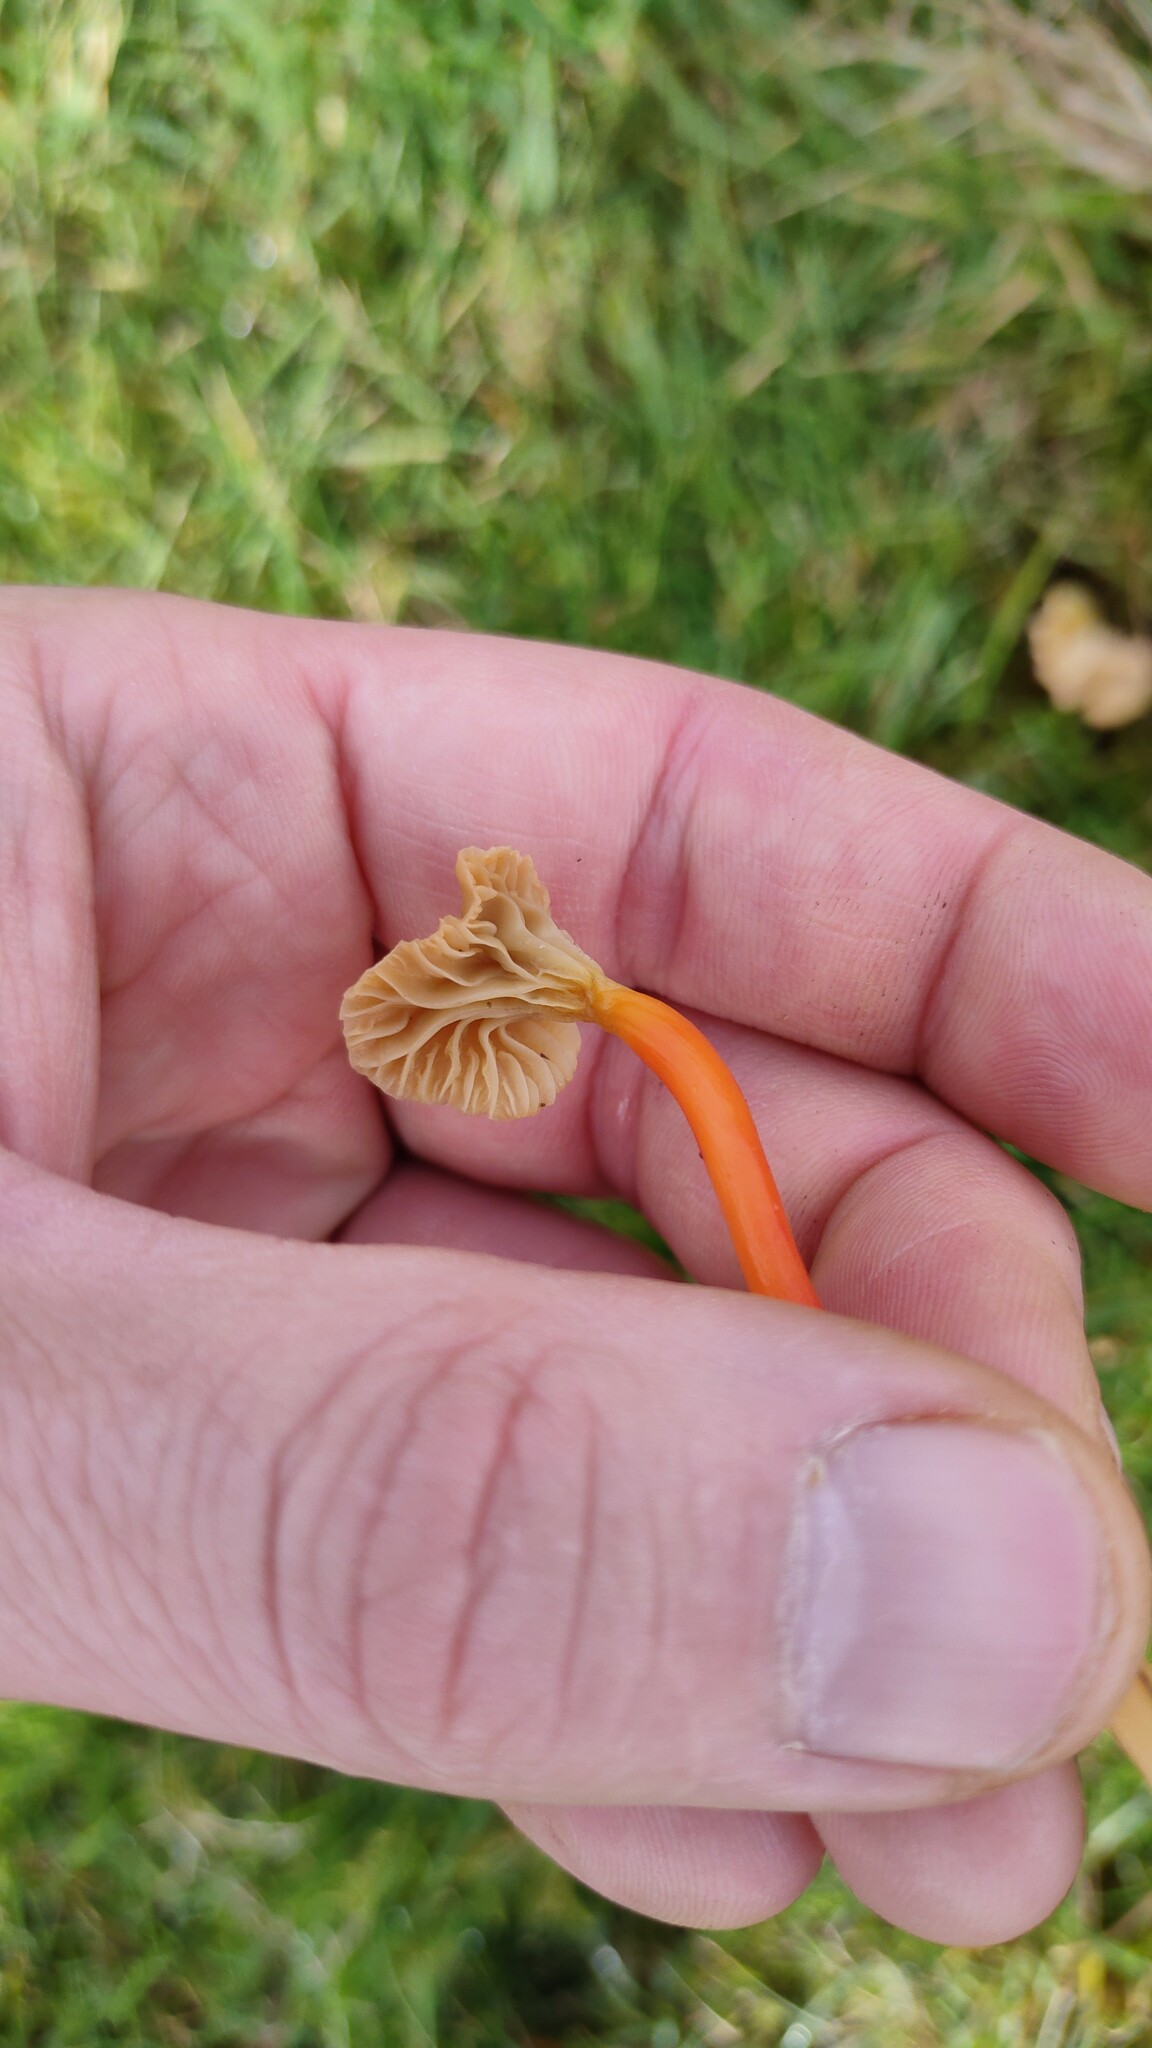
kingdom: Fungi
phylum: Basidiomycota
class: Agaricomycetes
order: Agaricales
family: Hygrophoraceae
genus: Hygrocybe
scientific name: Hygrocybe lepida
